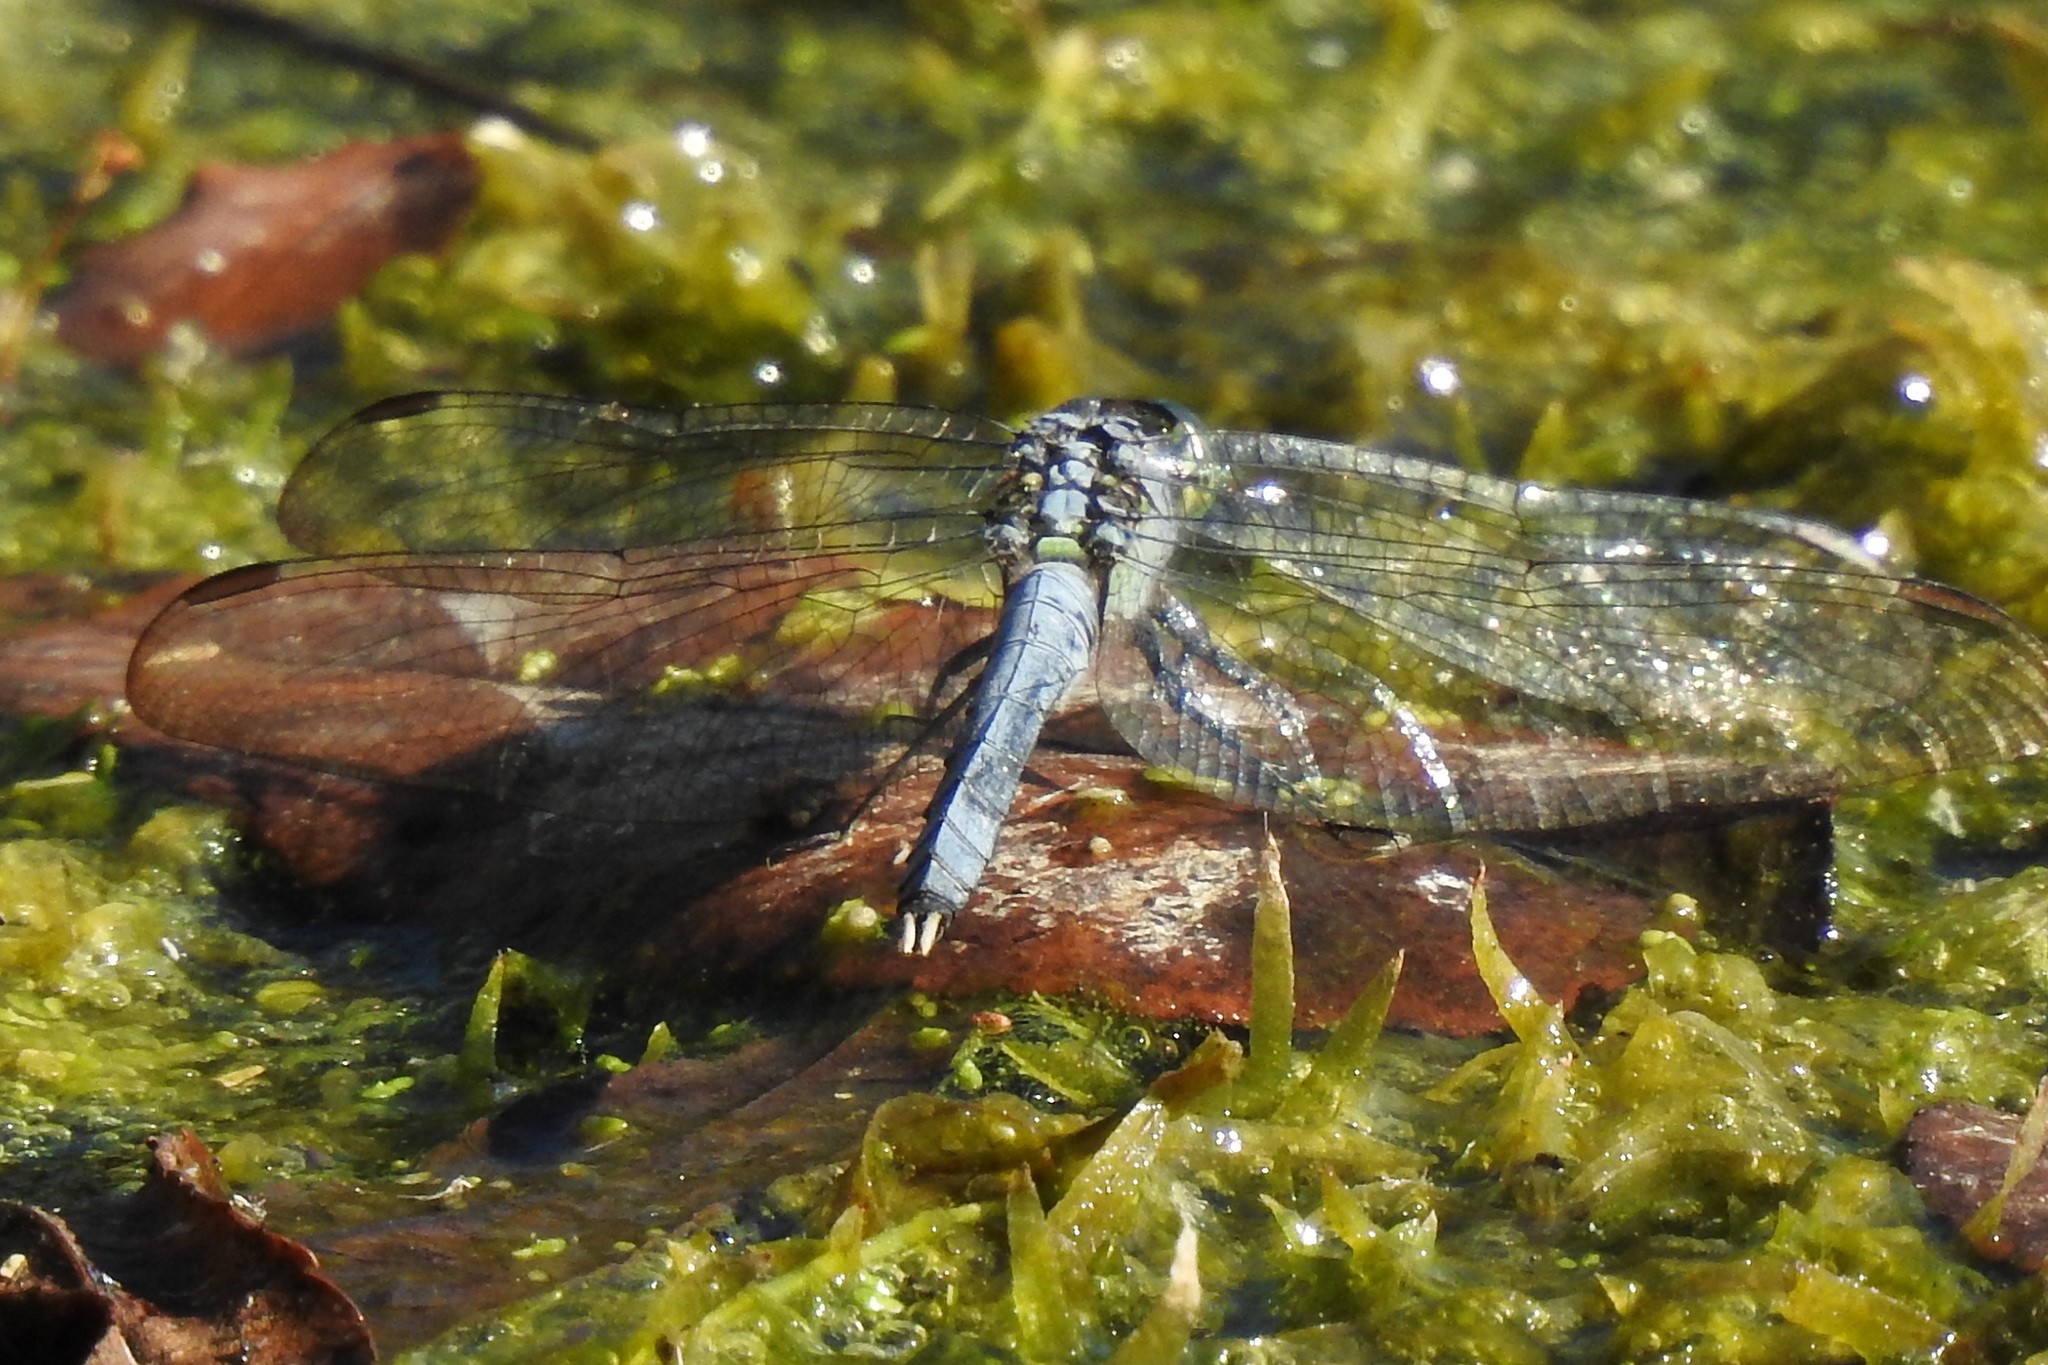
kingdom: Animalia
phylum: Arthropoda
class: Insecta
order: Odonata
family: Libellulidae
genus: Erythemis
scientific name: Erythemis simplicicollis
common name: Eastern pondhawk
